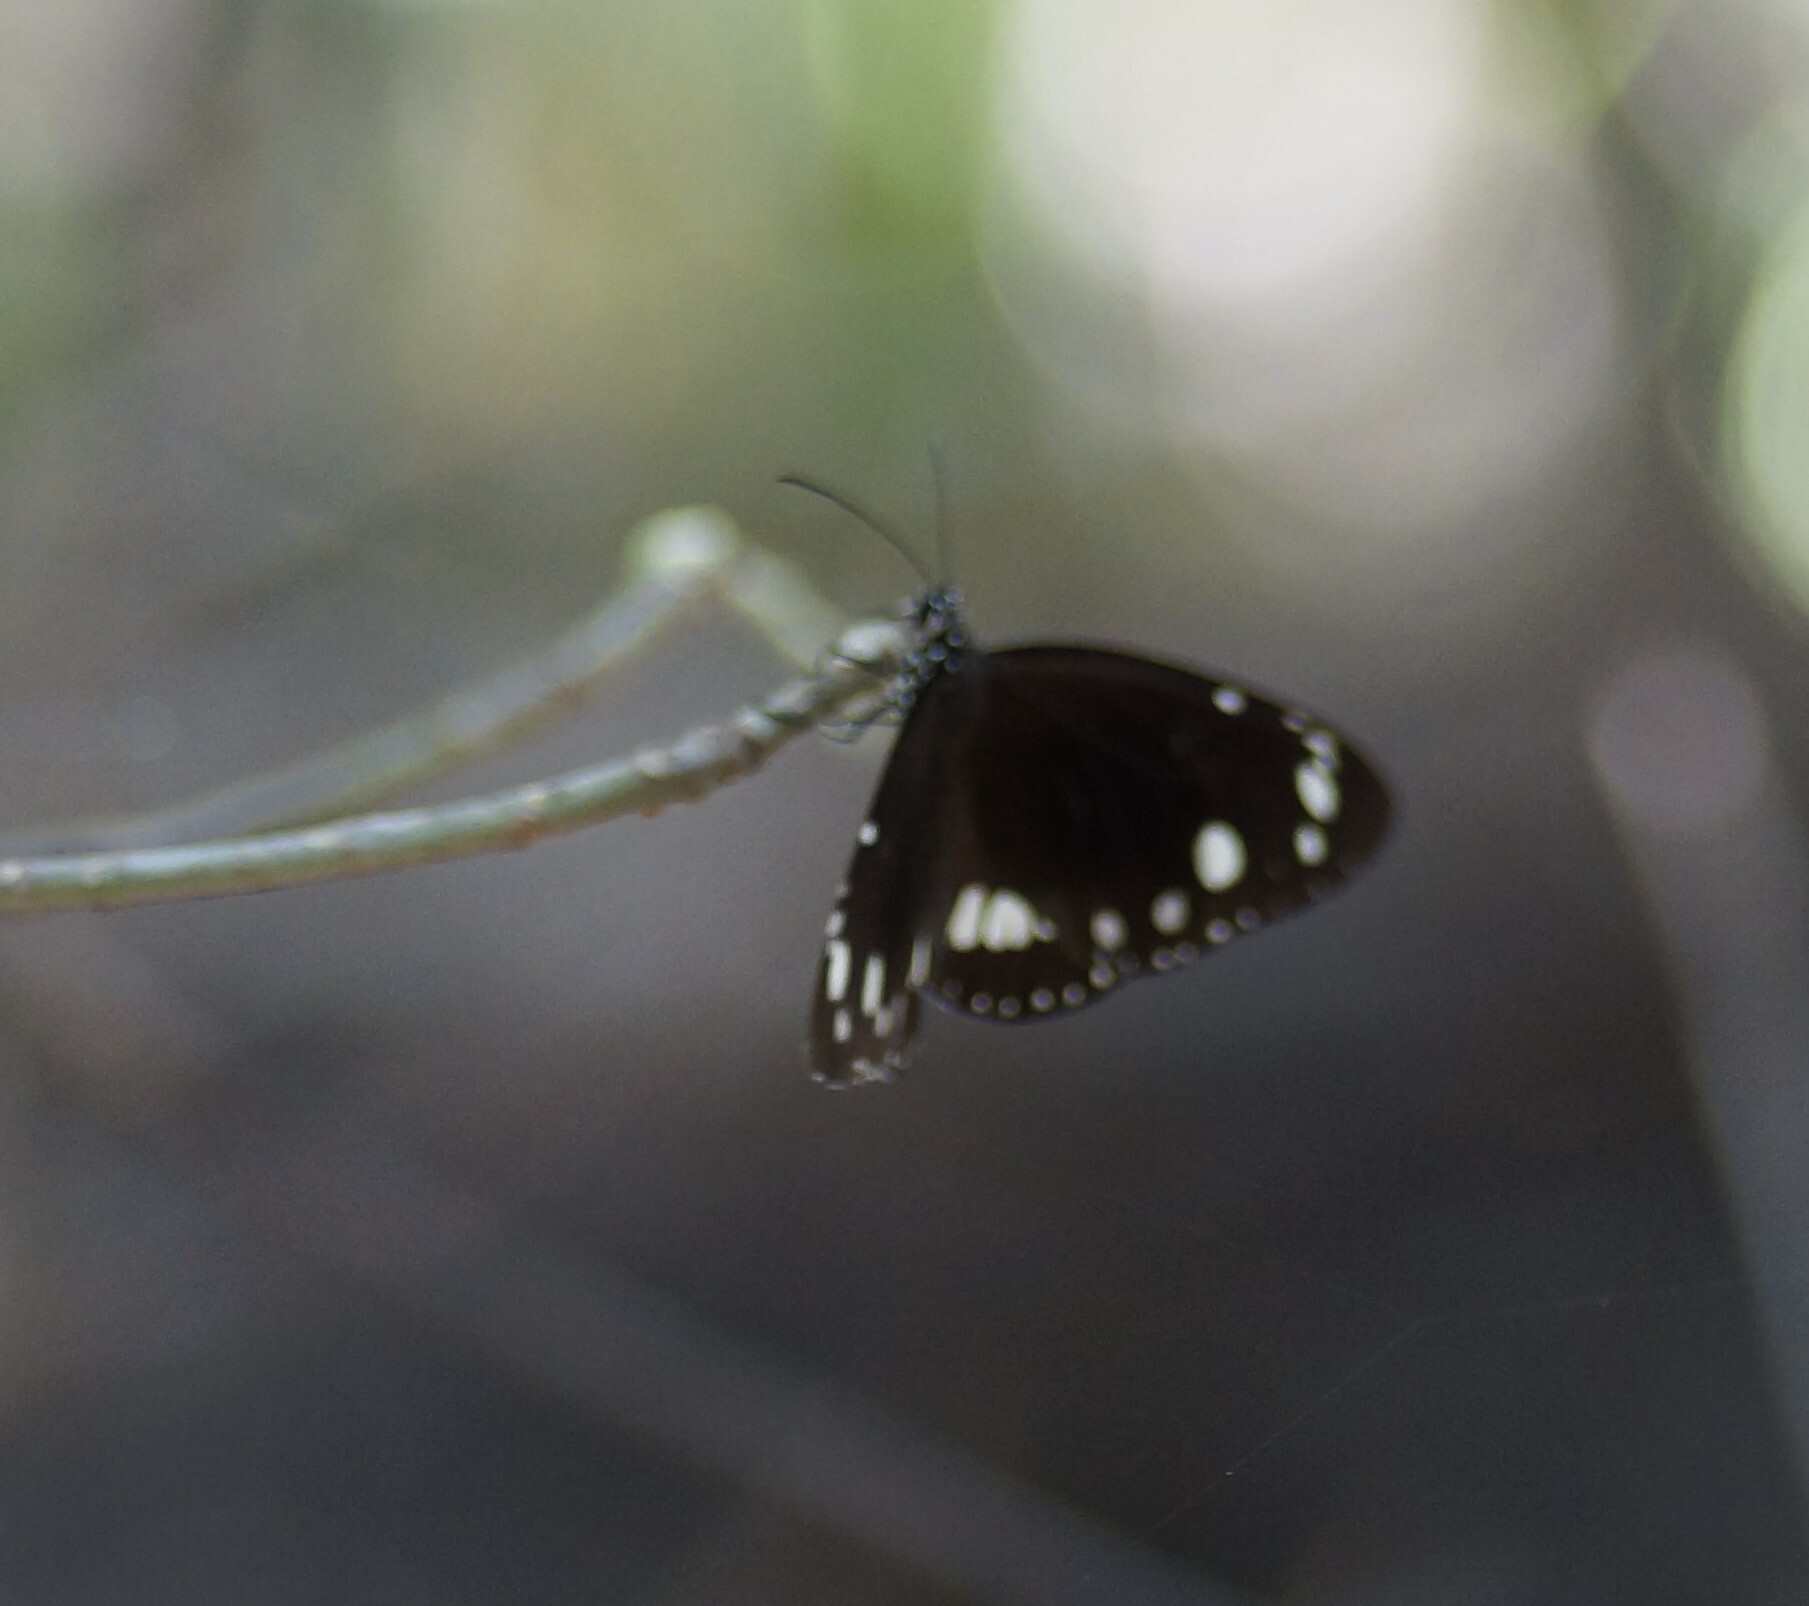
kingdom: Animalia
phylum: Arthropoda
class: Insecta
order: Lepidoptera
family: Nymphalidae
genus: Euploea
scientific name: Euploea core
